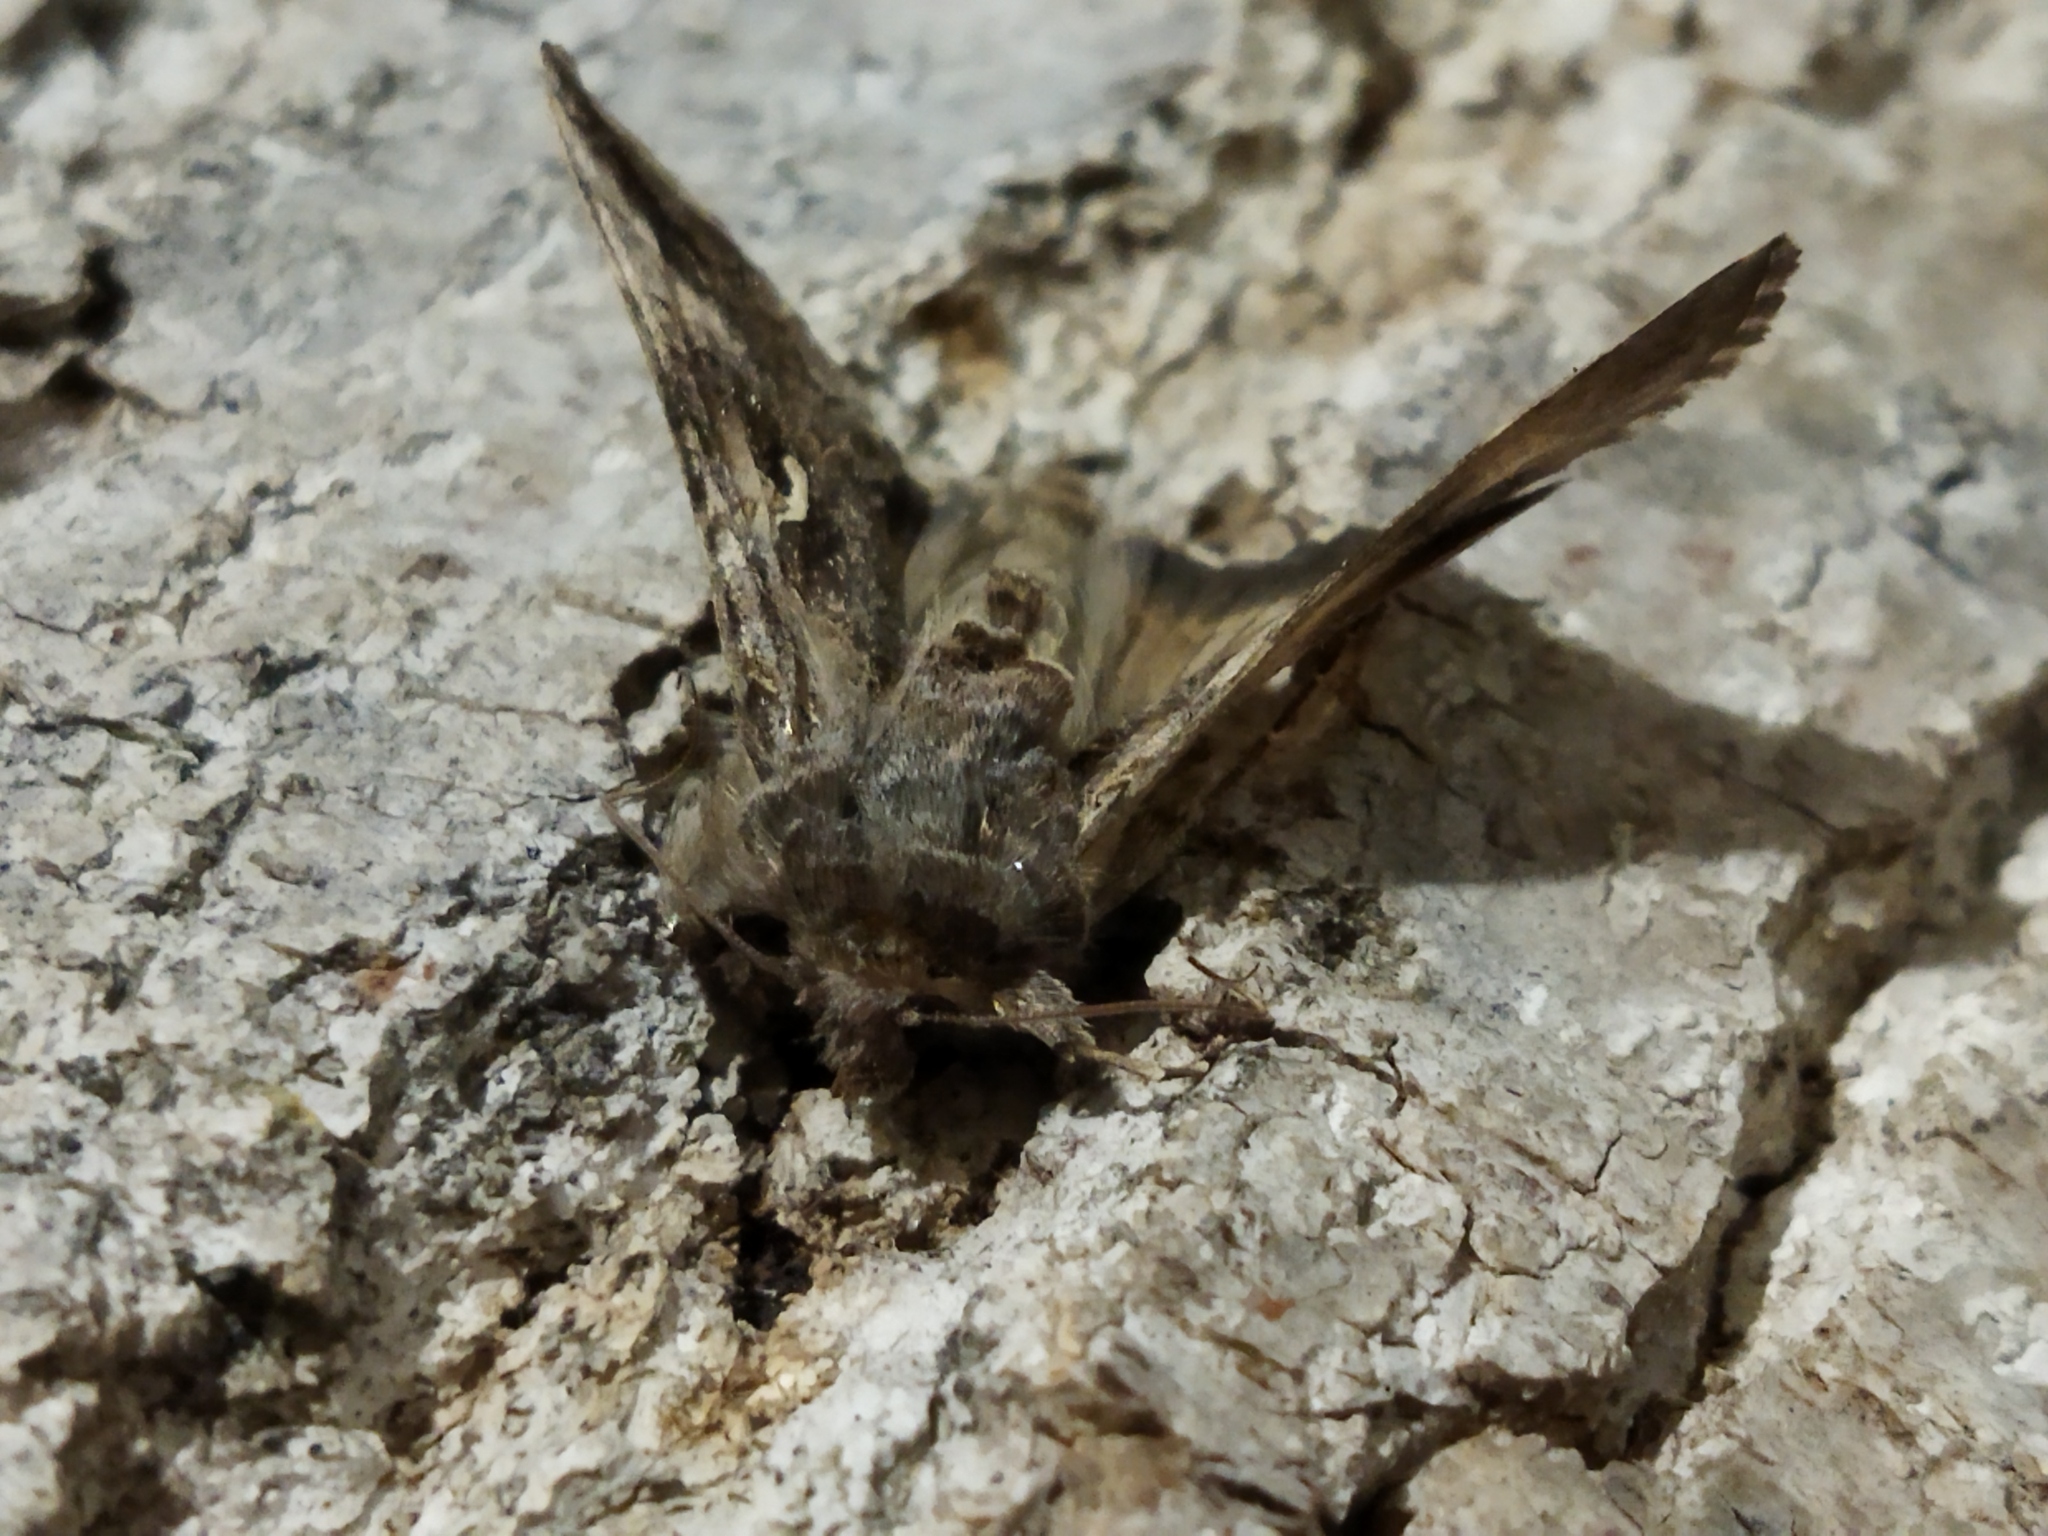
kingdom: Animalia
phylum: Arthropoda
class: Insecta
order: Lepidoptera
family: Noctuidae
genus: Autographa
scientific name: Autographa gamma
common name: Silver y
